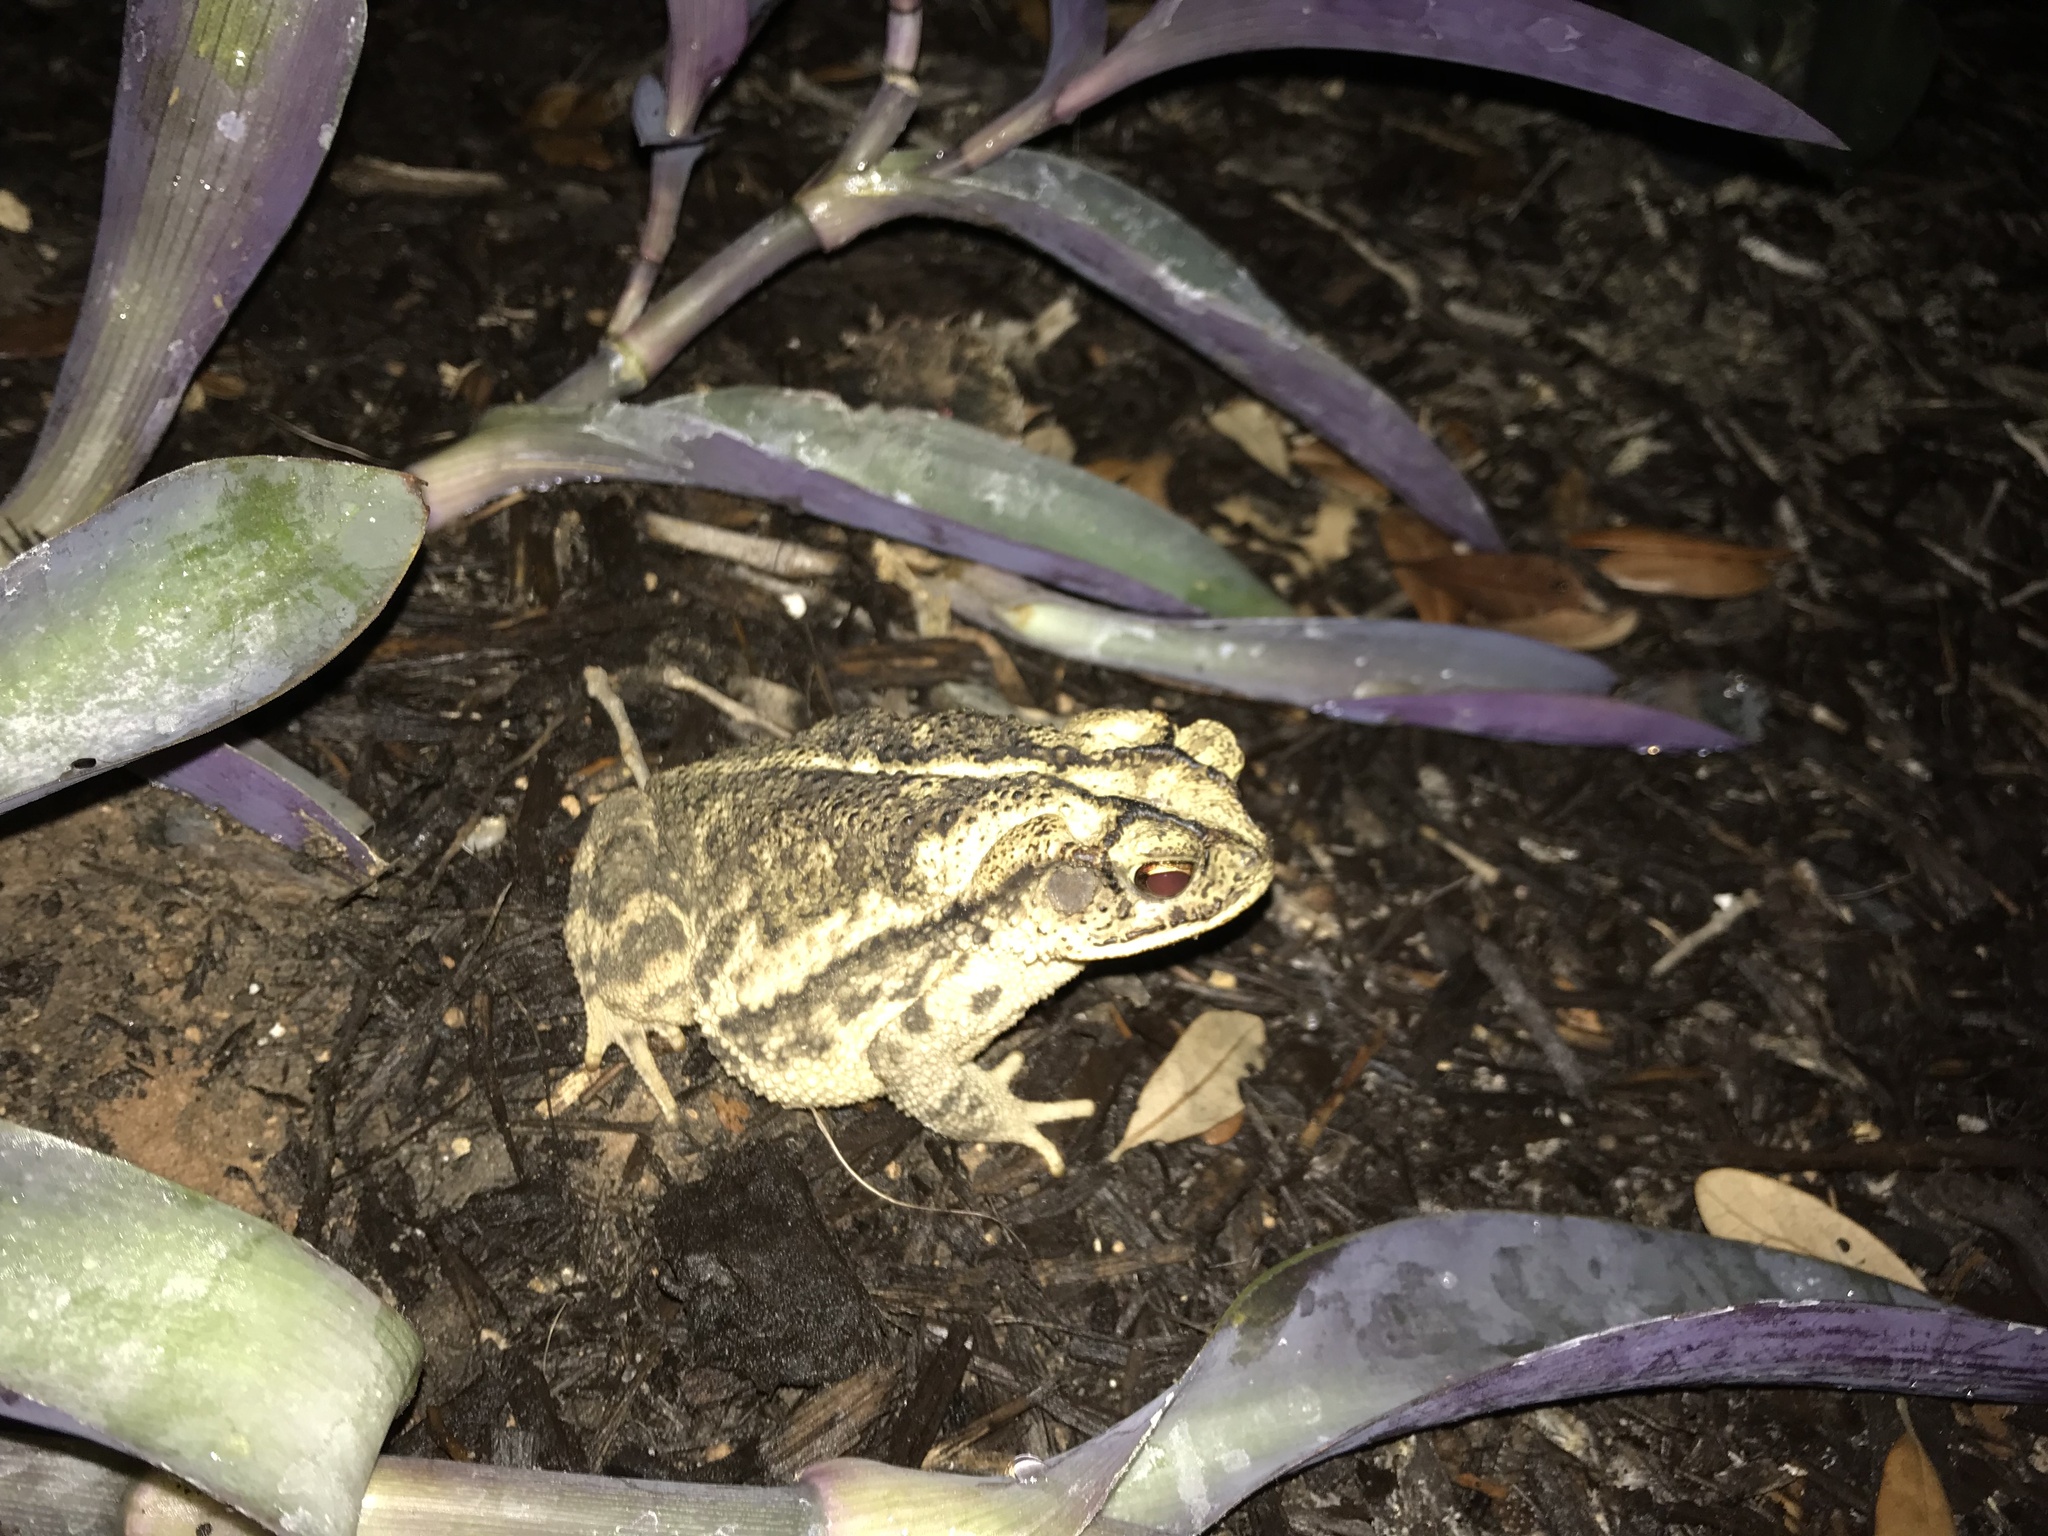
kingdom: Animalia
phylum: Chordata
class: Amphibia
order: Anura
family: Bufonidae
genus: Incilius
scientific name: Incilius nebulifer
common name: Gulf coast toad
